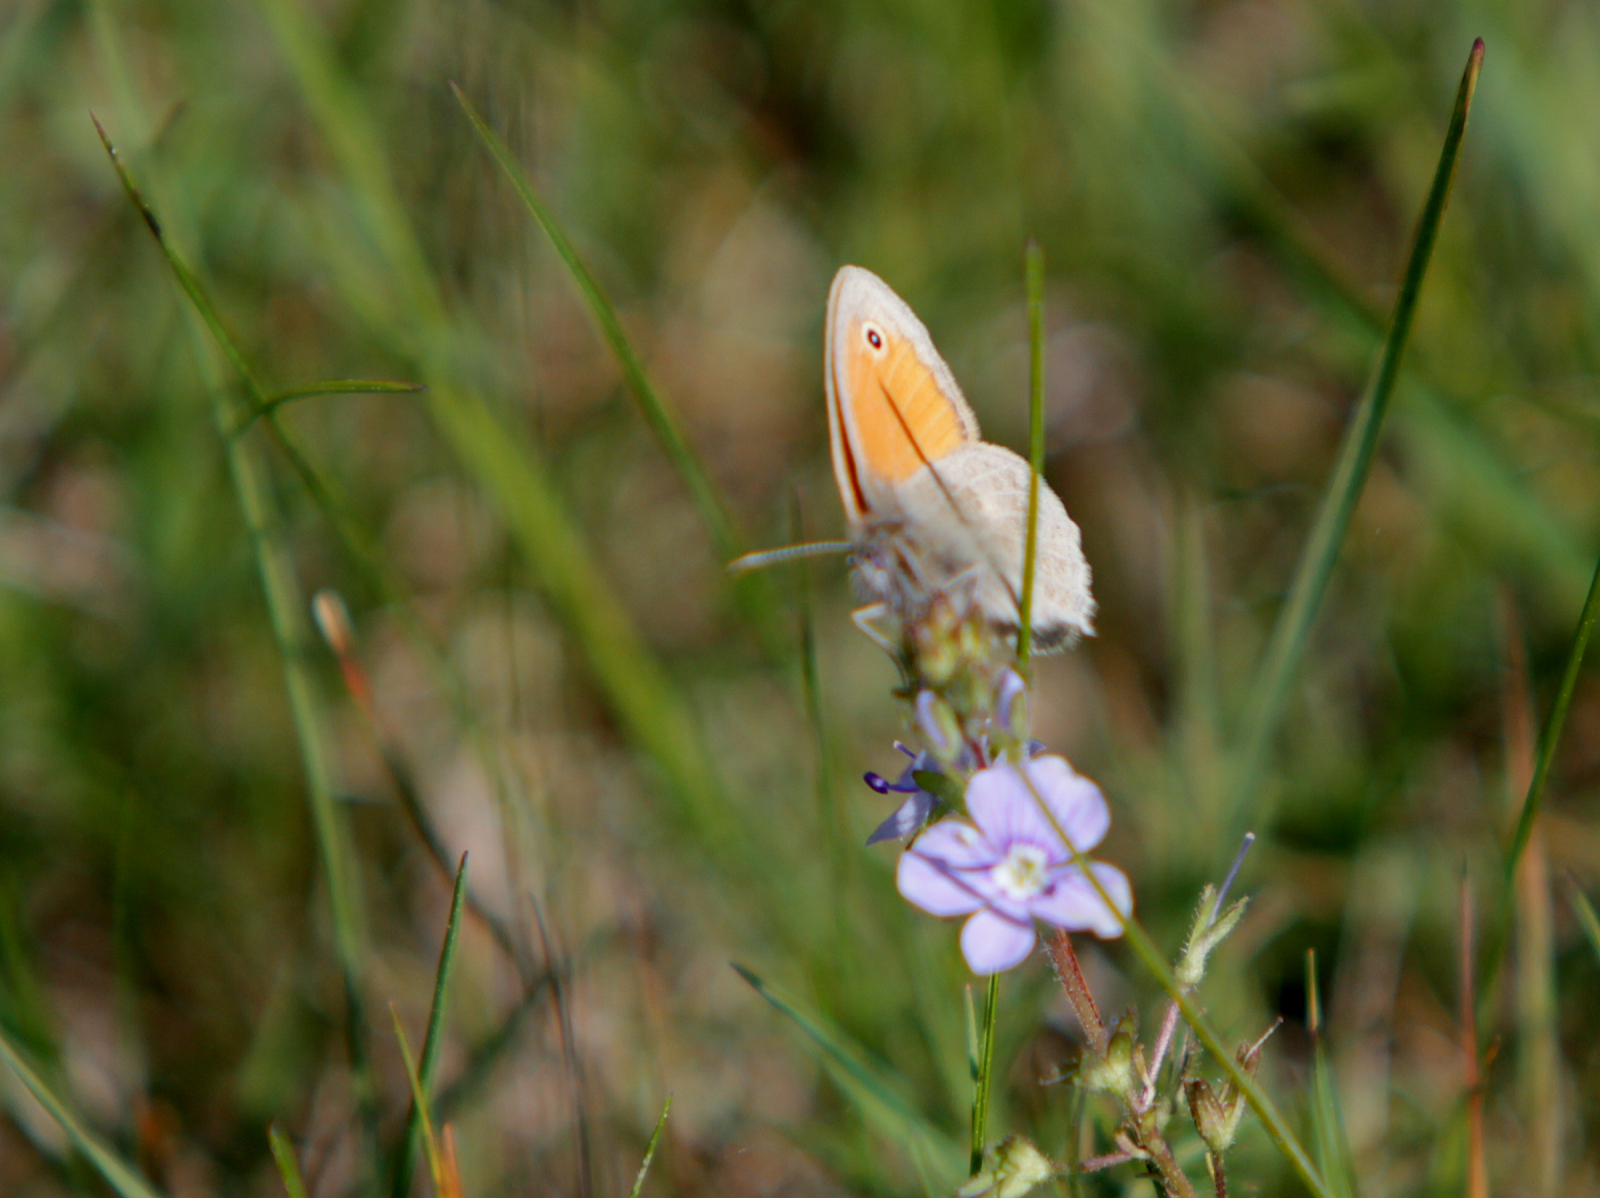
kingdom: Animalia
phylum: Arthropoda
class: Insecta
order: Lepidoptera
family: Nymphalidae
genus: Coenonympha
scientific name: Coenonympha pamphilus
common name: Small heath
